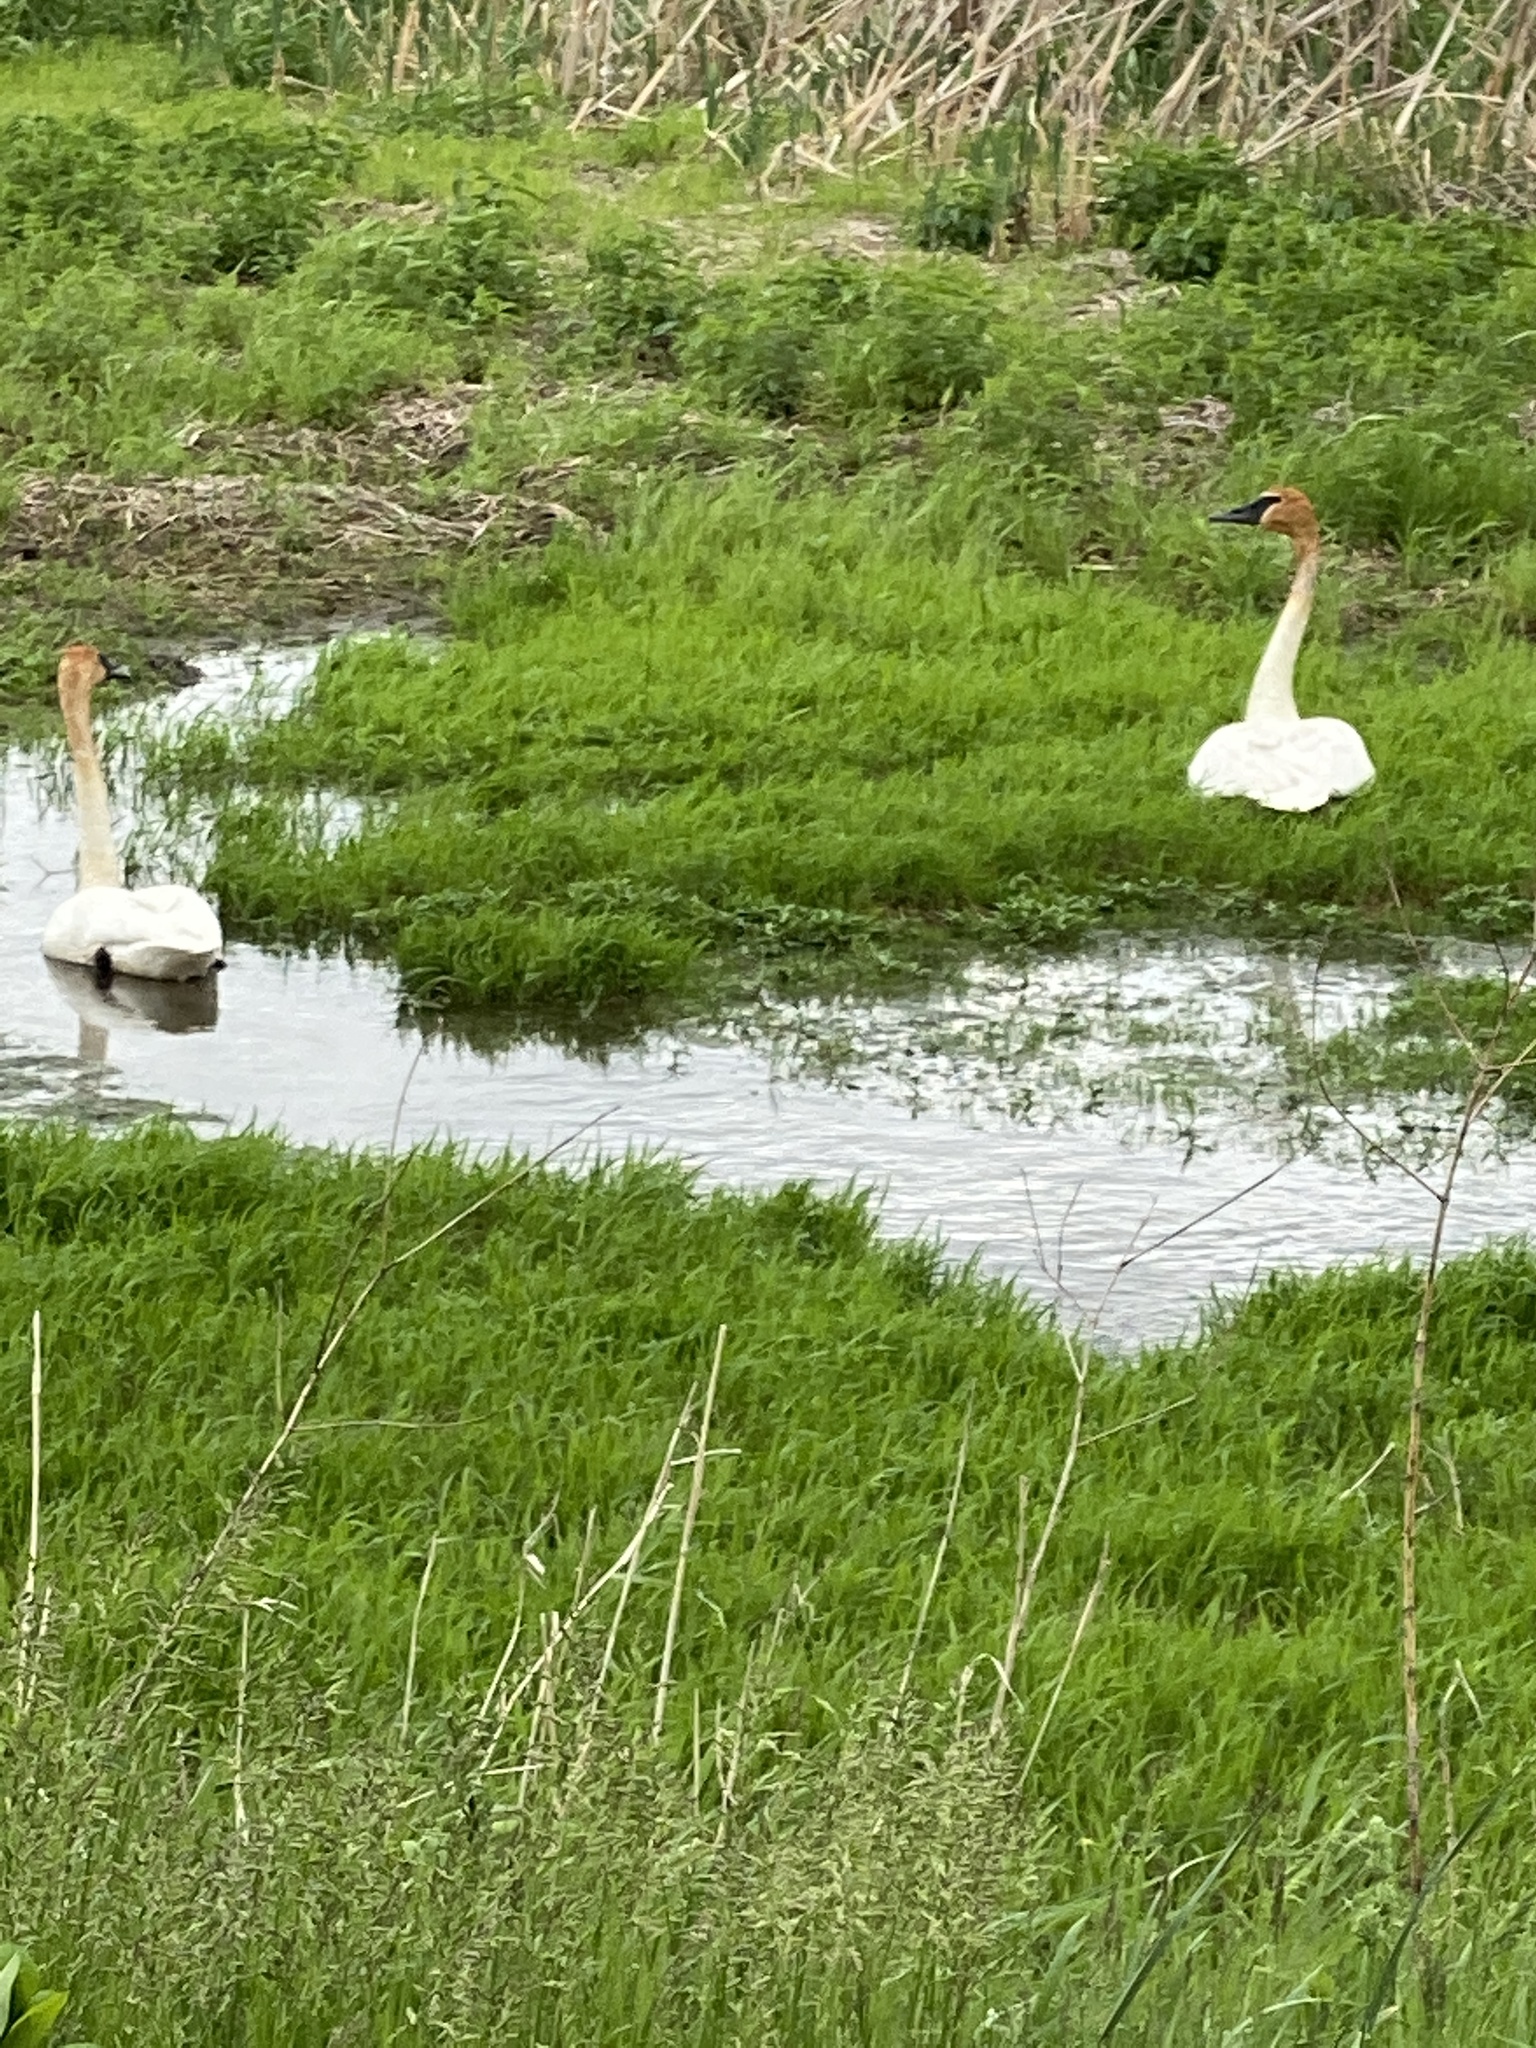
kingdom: Animalia
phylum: Chordata
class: Aves
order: Anseriformes
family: Anatidae
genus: Cygnus
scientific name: Cygnus buccinator
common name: Trumpeter swan
